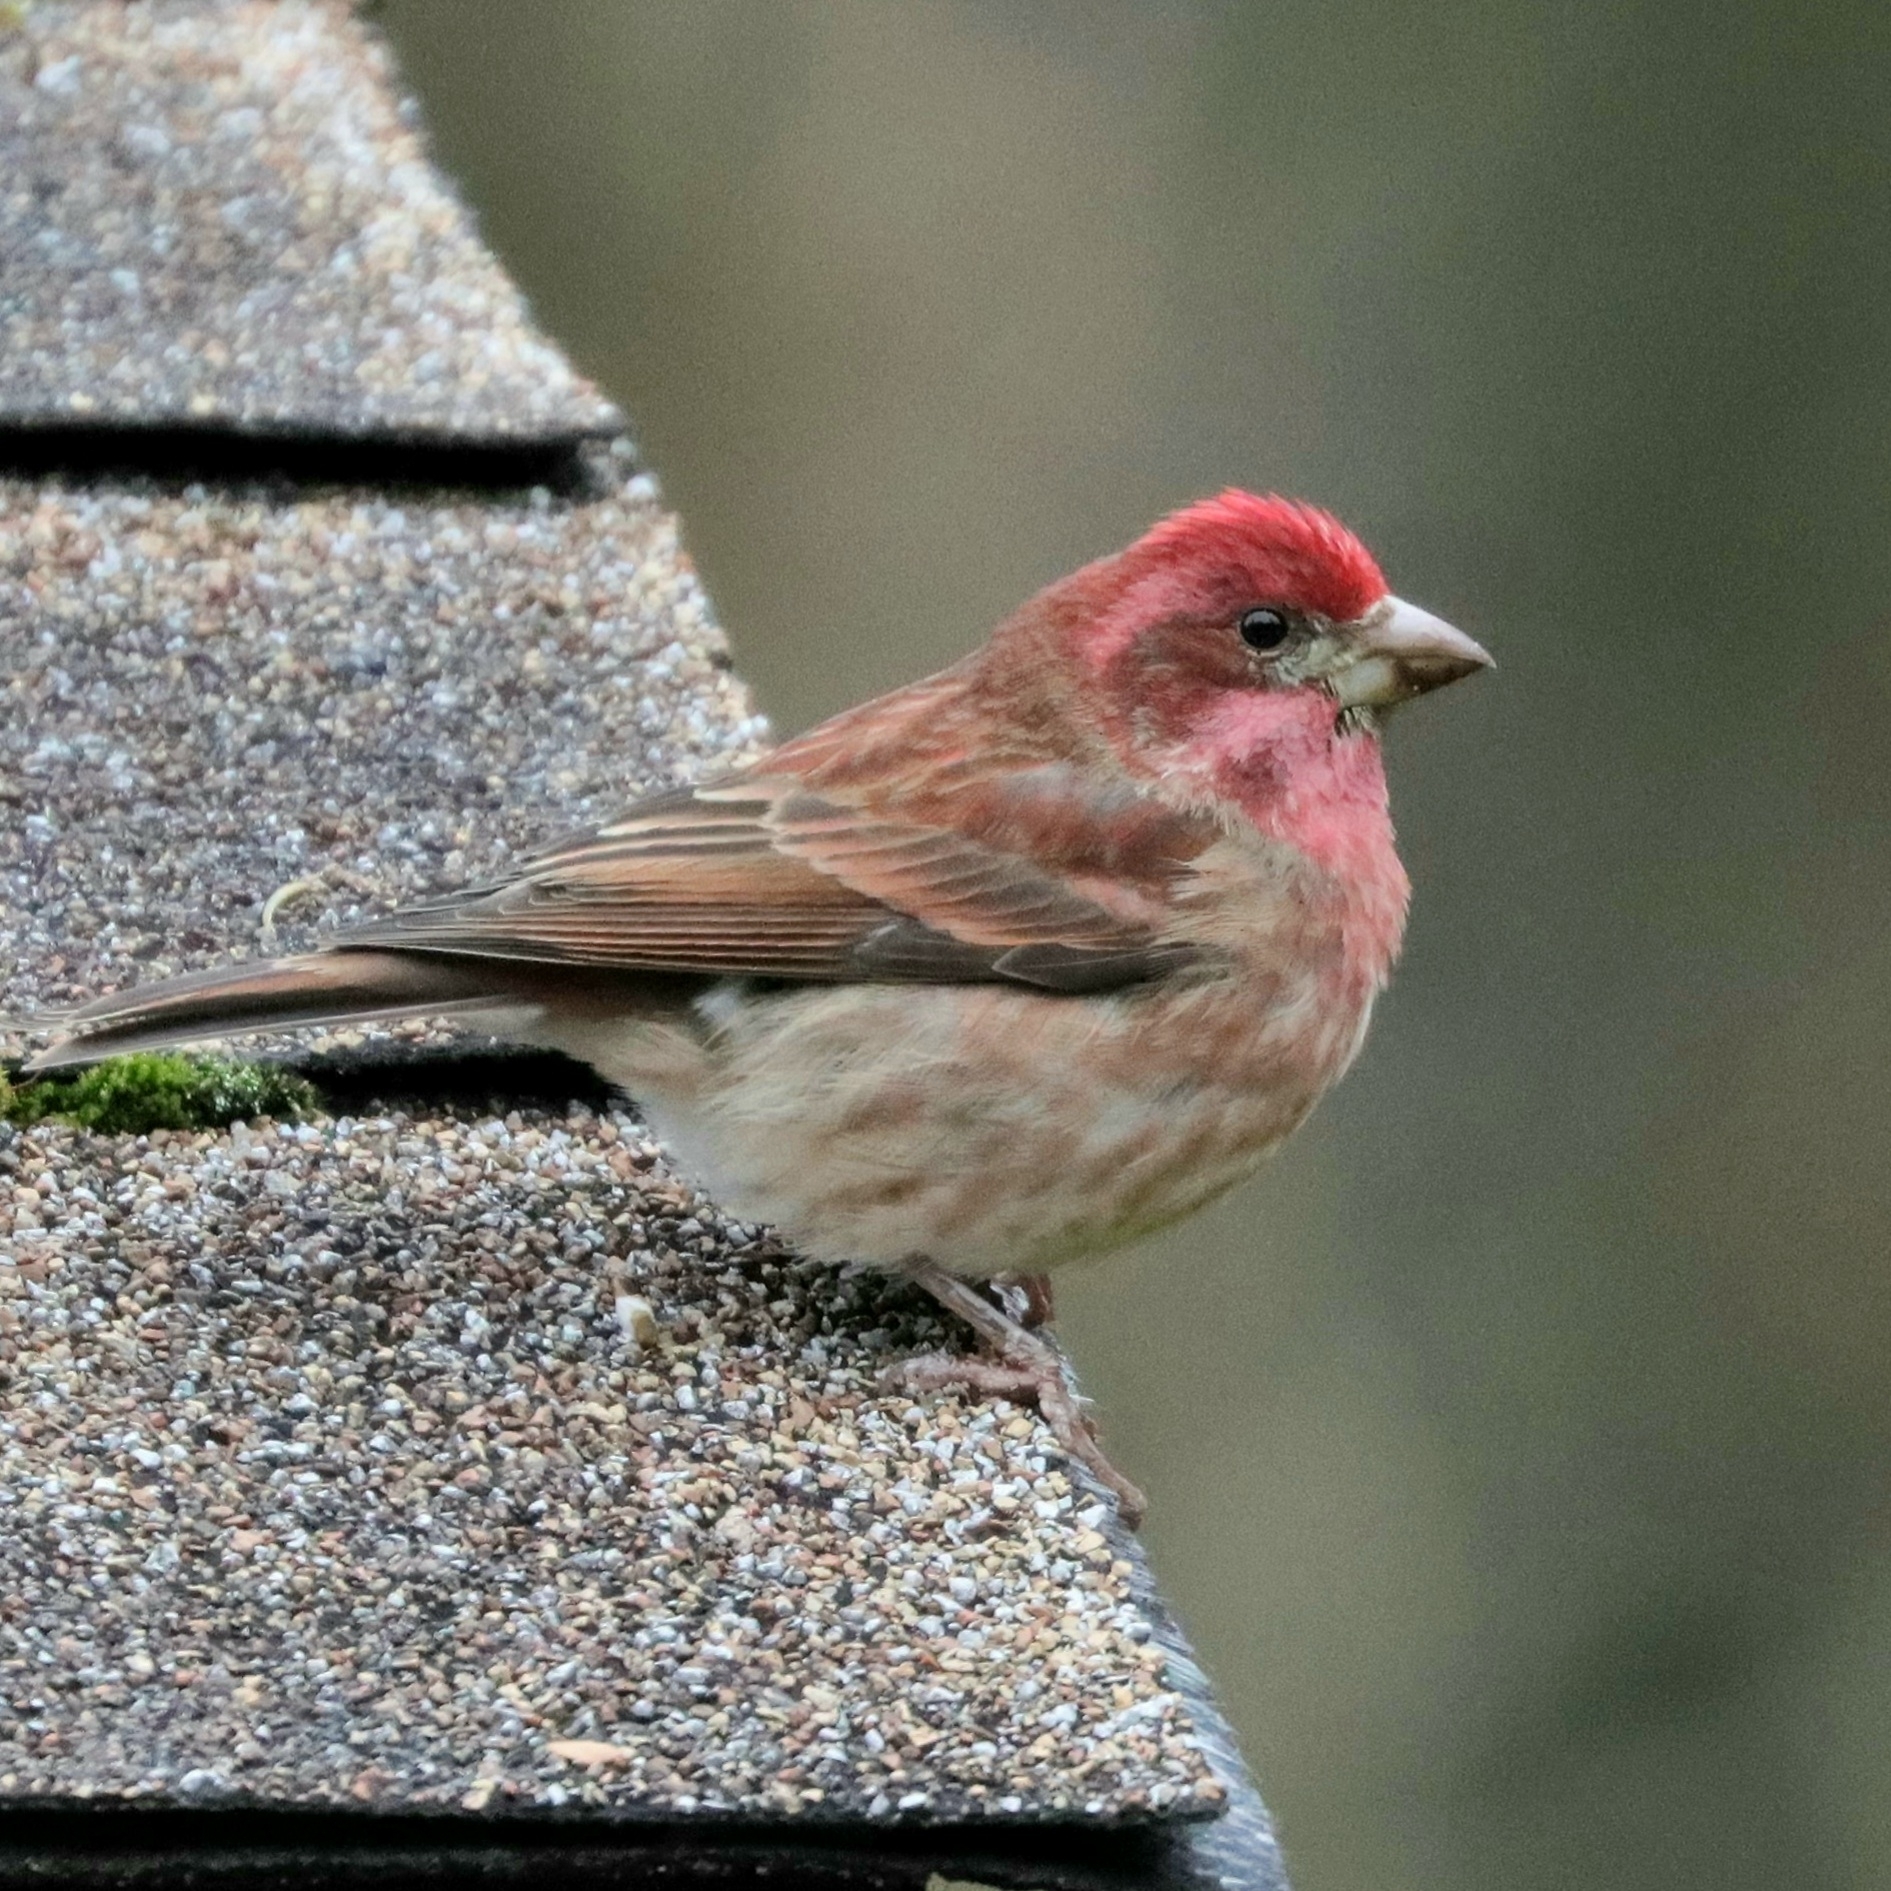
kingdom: Animalia
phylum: Chordata
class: Aves
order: Passeriformes
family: Fringillidae
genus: Haemorhous
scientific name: Haemorhous purpureus
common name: Purple finch
